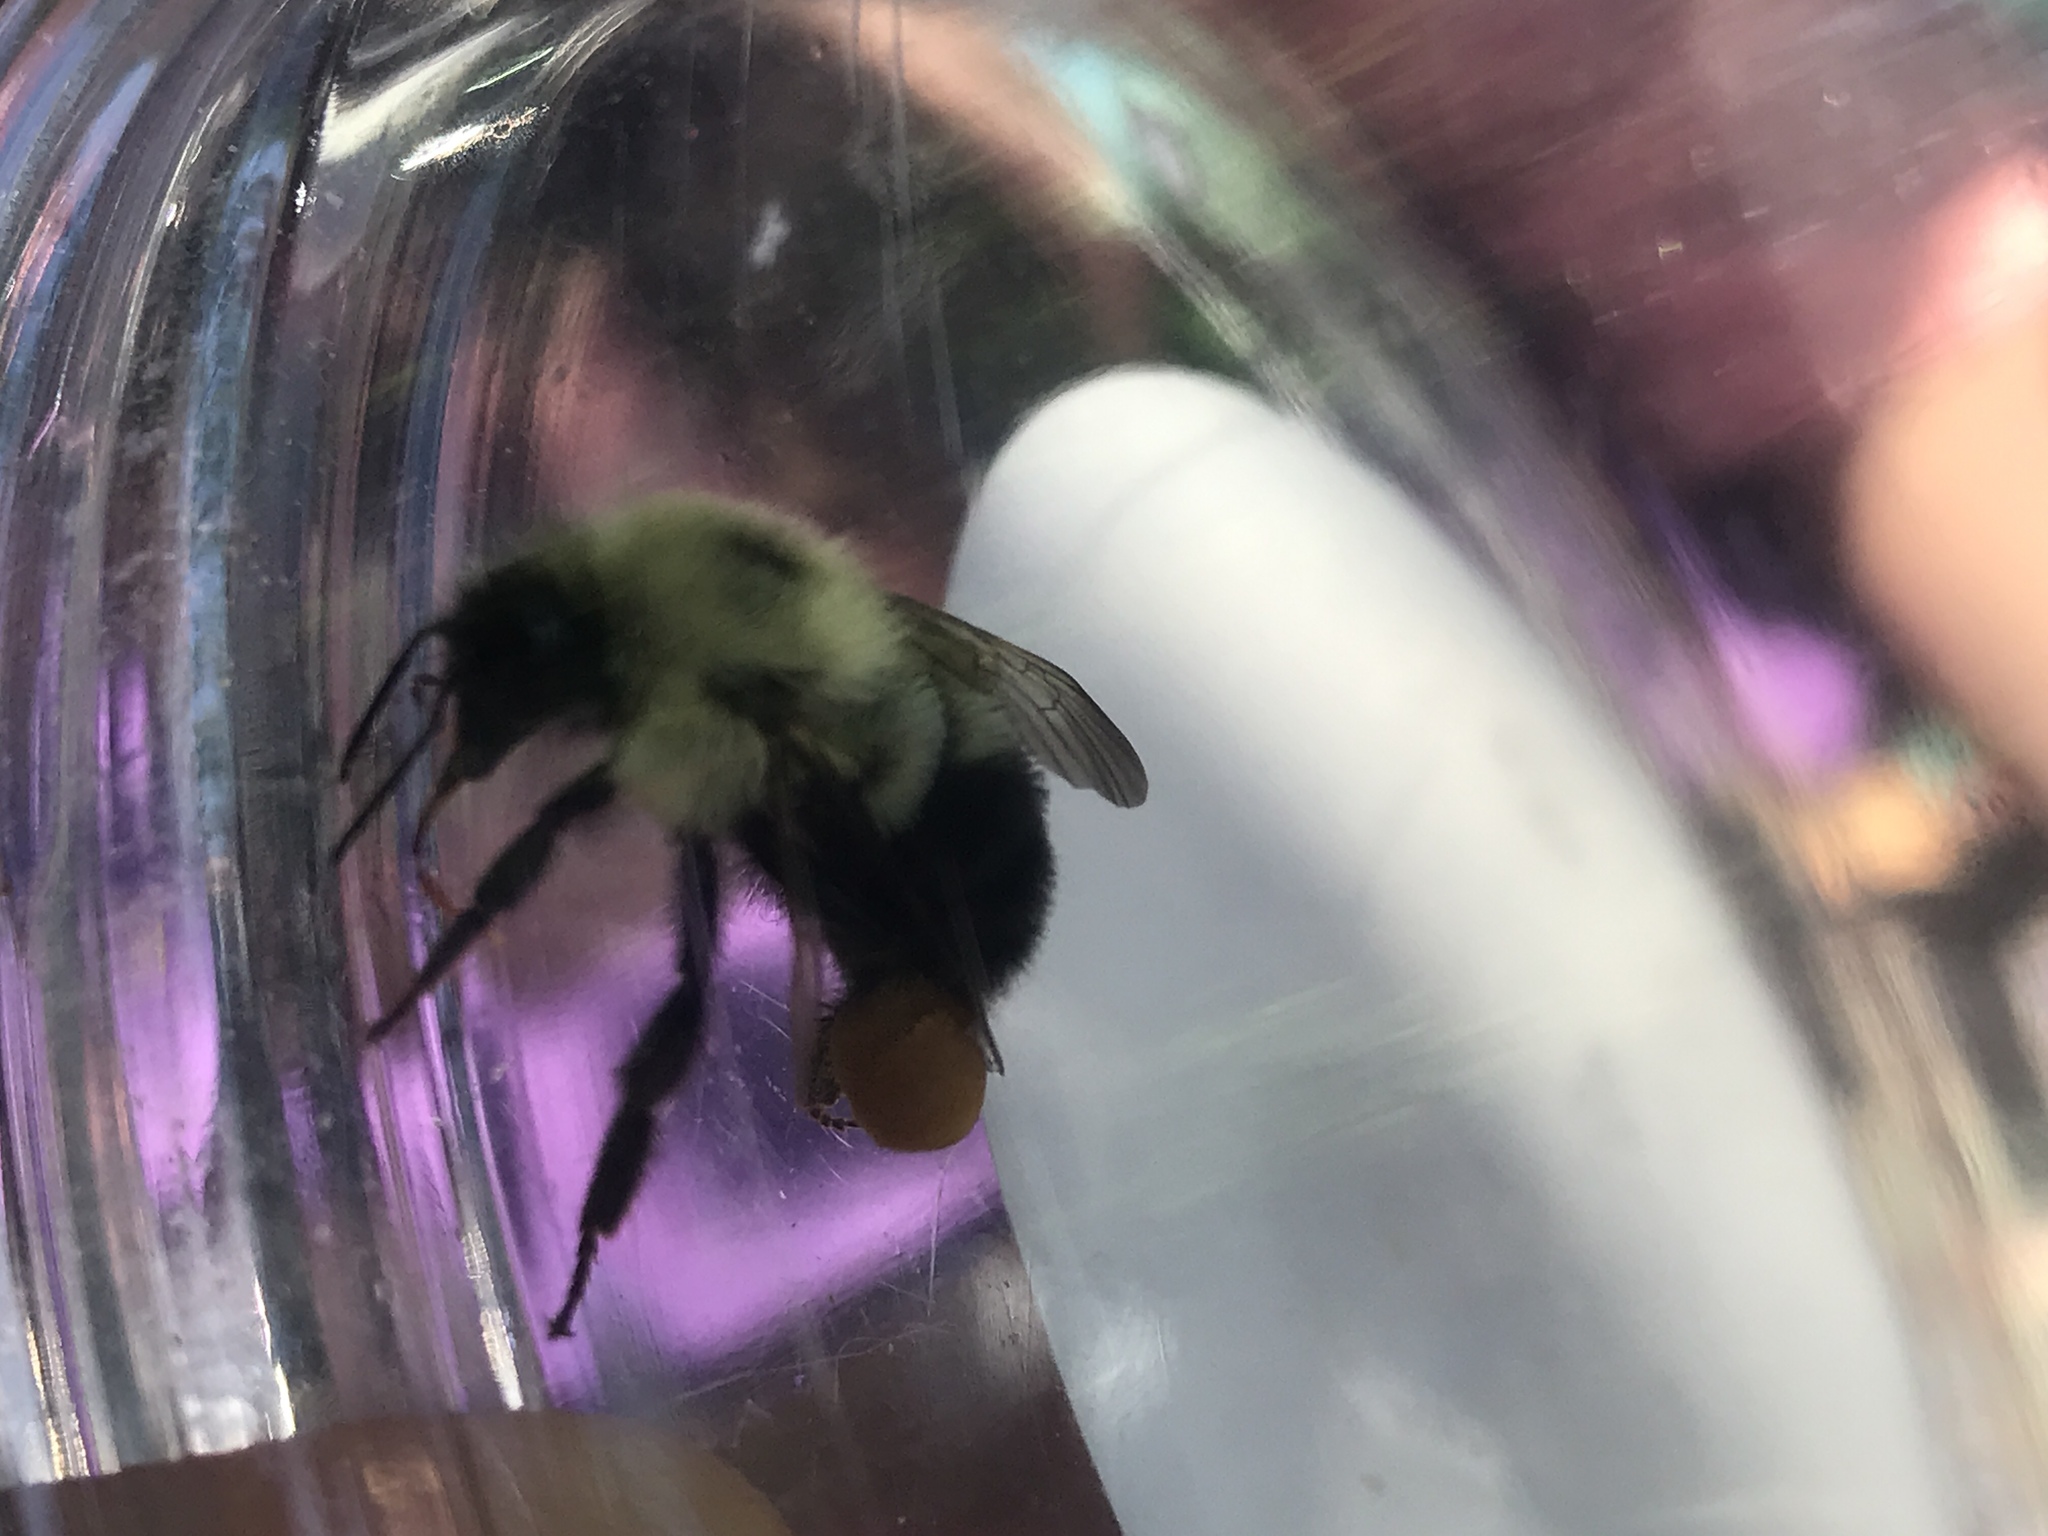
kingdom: Animalia
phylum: Arthropoda
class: Insecta
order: Hymenoptera
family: Apidae
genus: Bombus
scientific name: Bombus bimaculatus
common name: Two-spotted bumble bee
